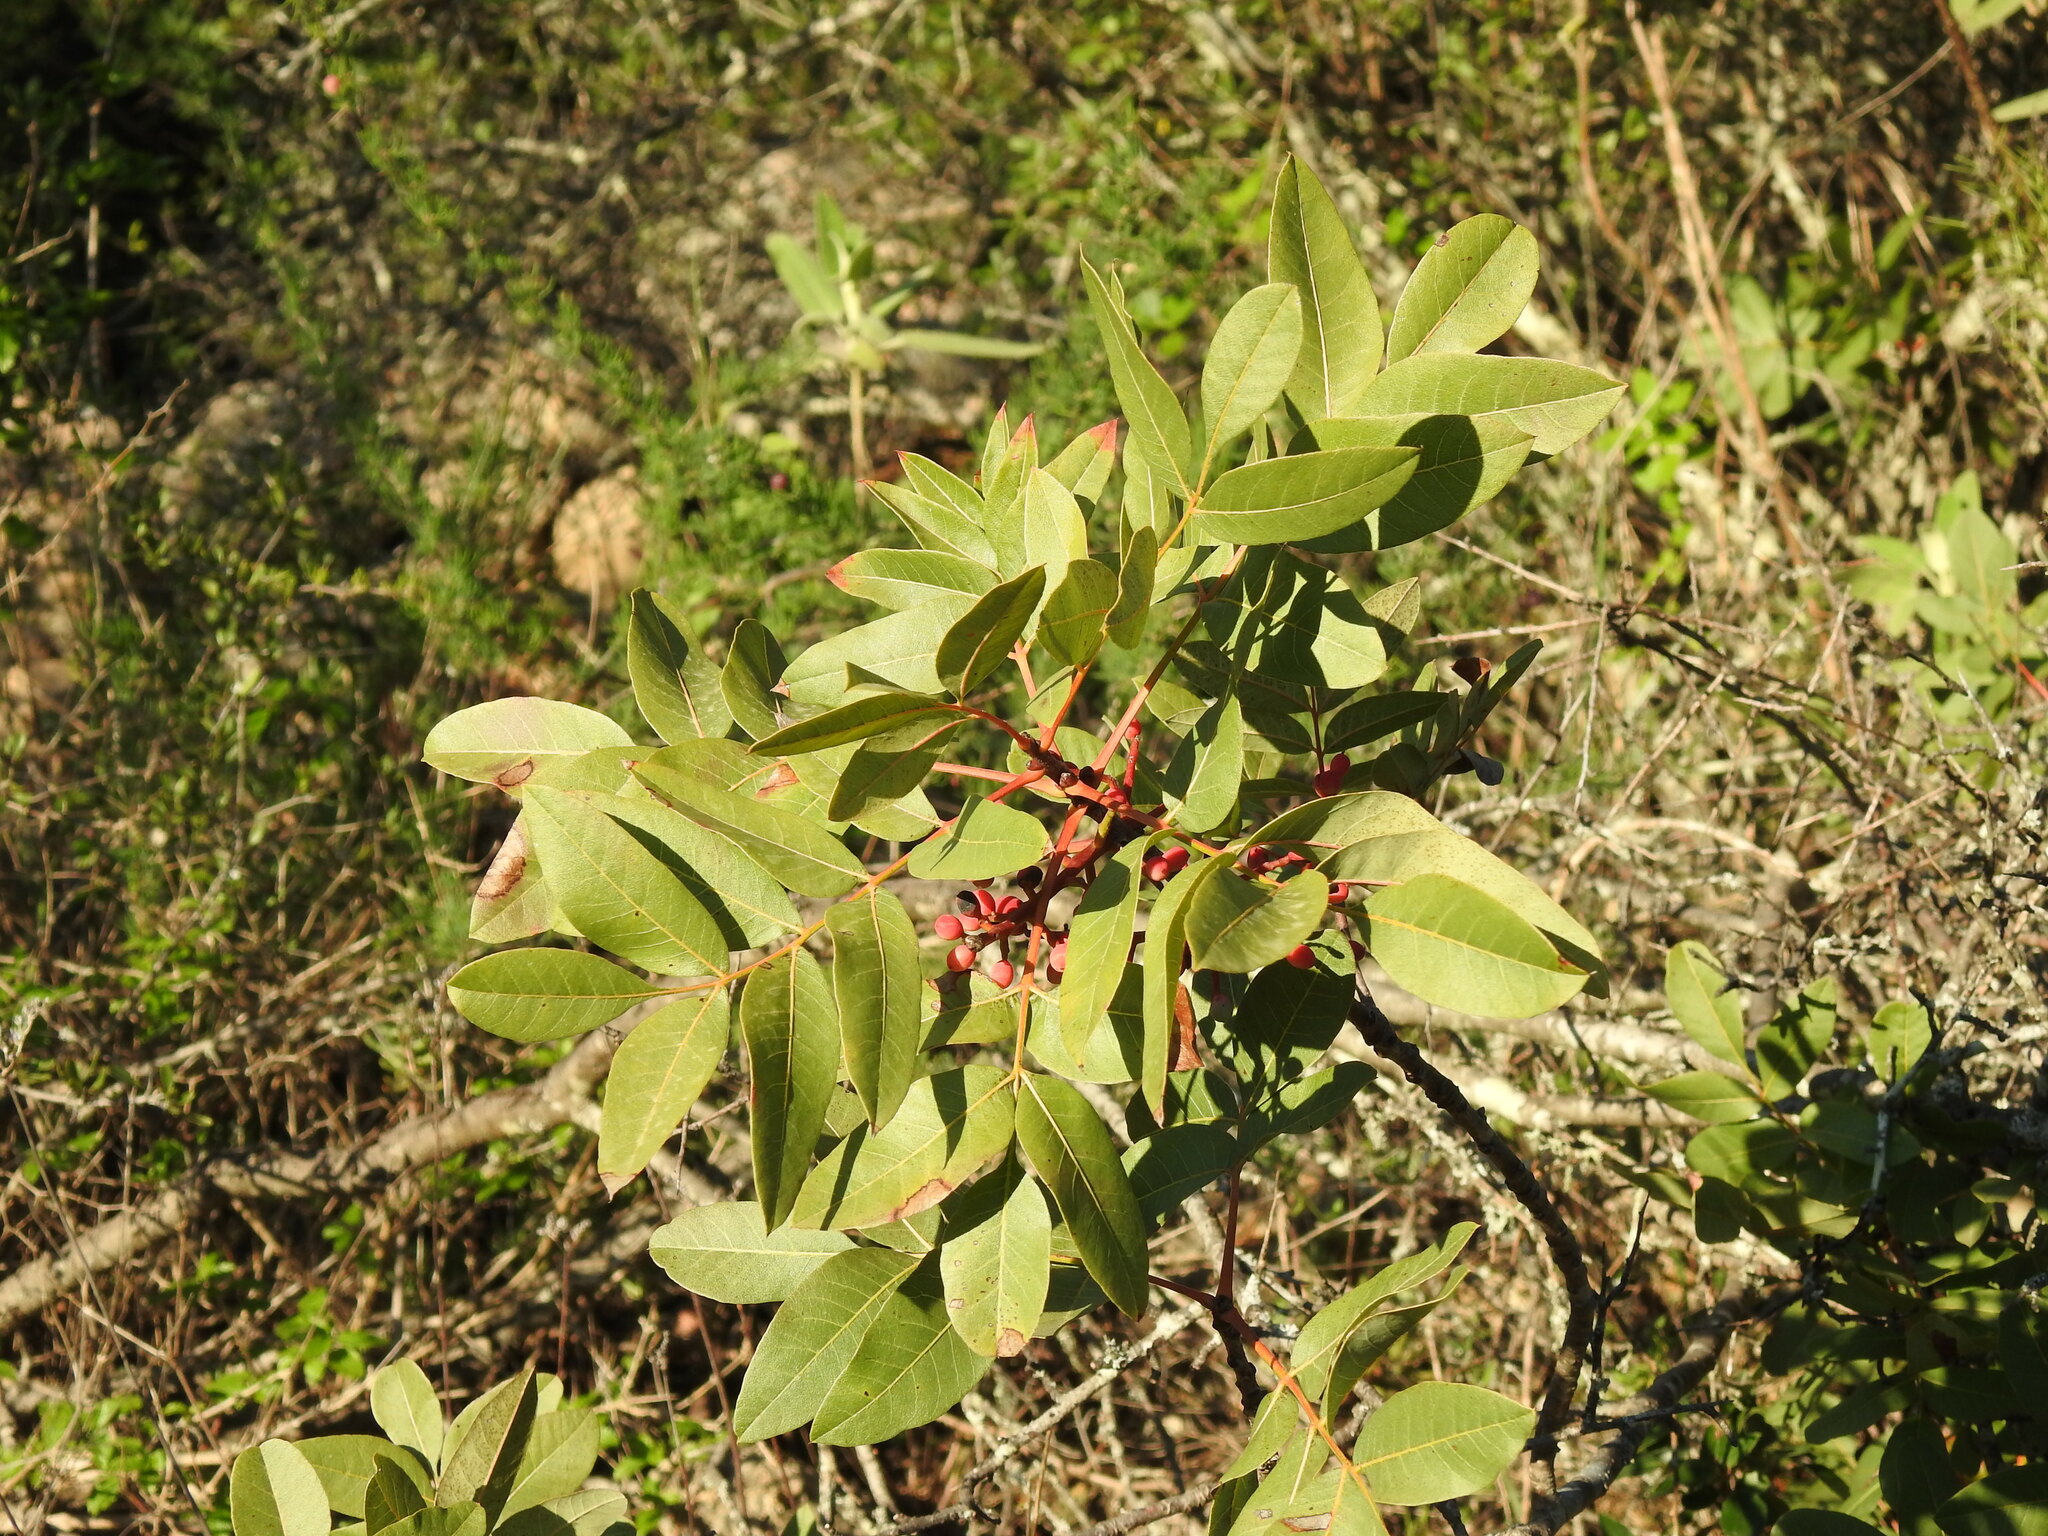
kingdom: Plantae
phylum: Tracheophyta
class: Magnoliopsida
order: Sapindales
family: Anacardiaceae
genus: Pistacia
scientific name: Pistacia terebinthus
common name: Terebinth
